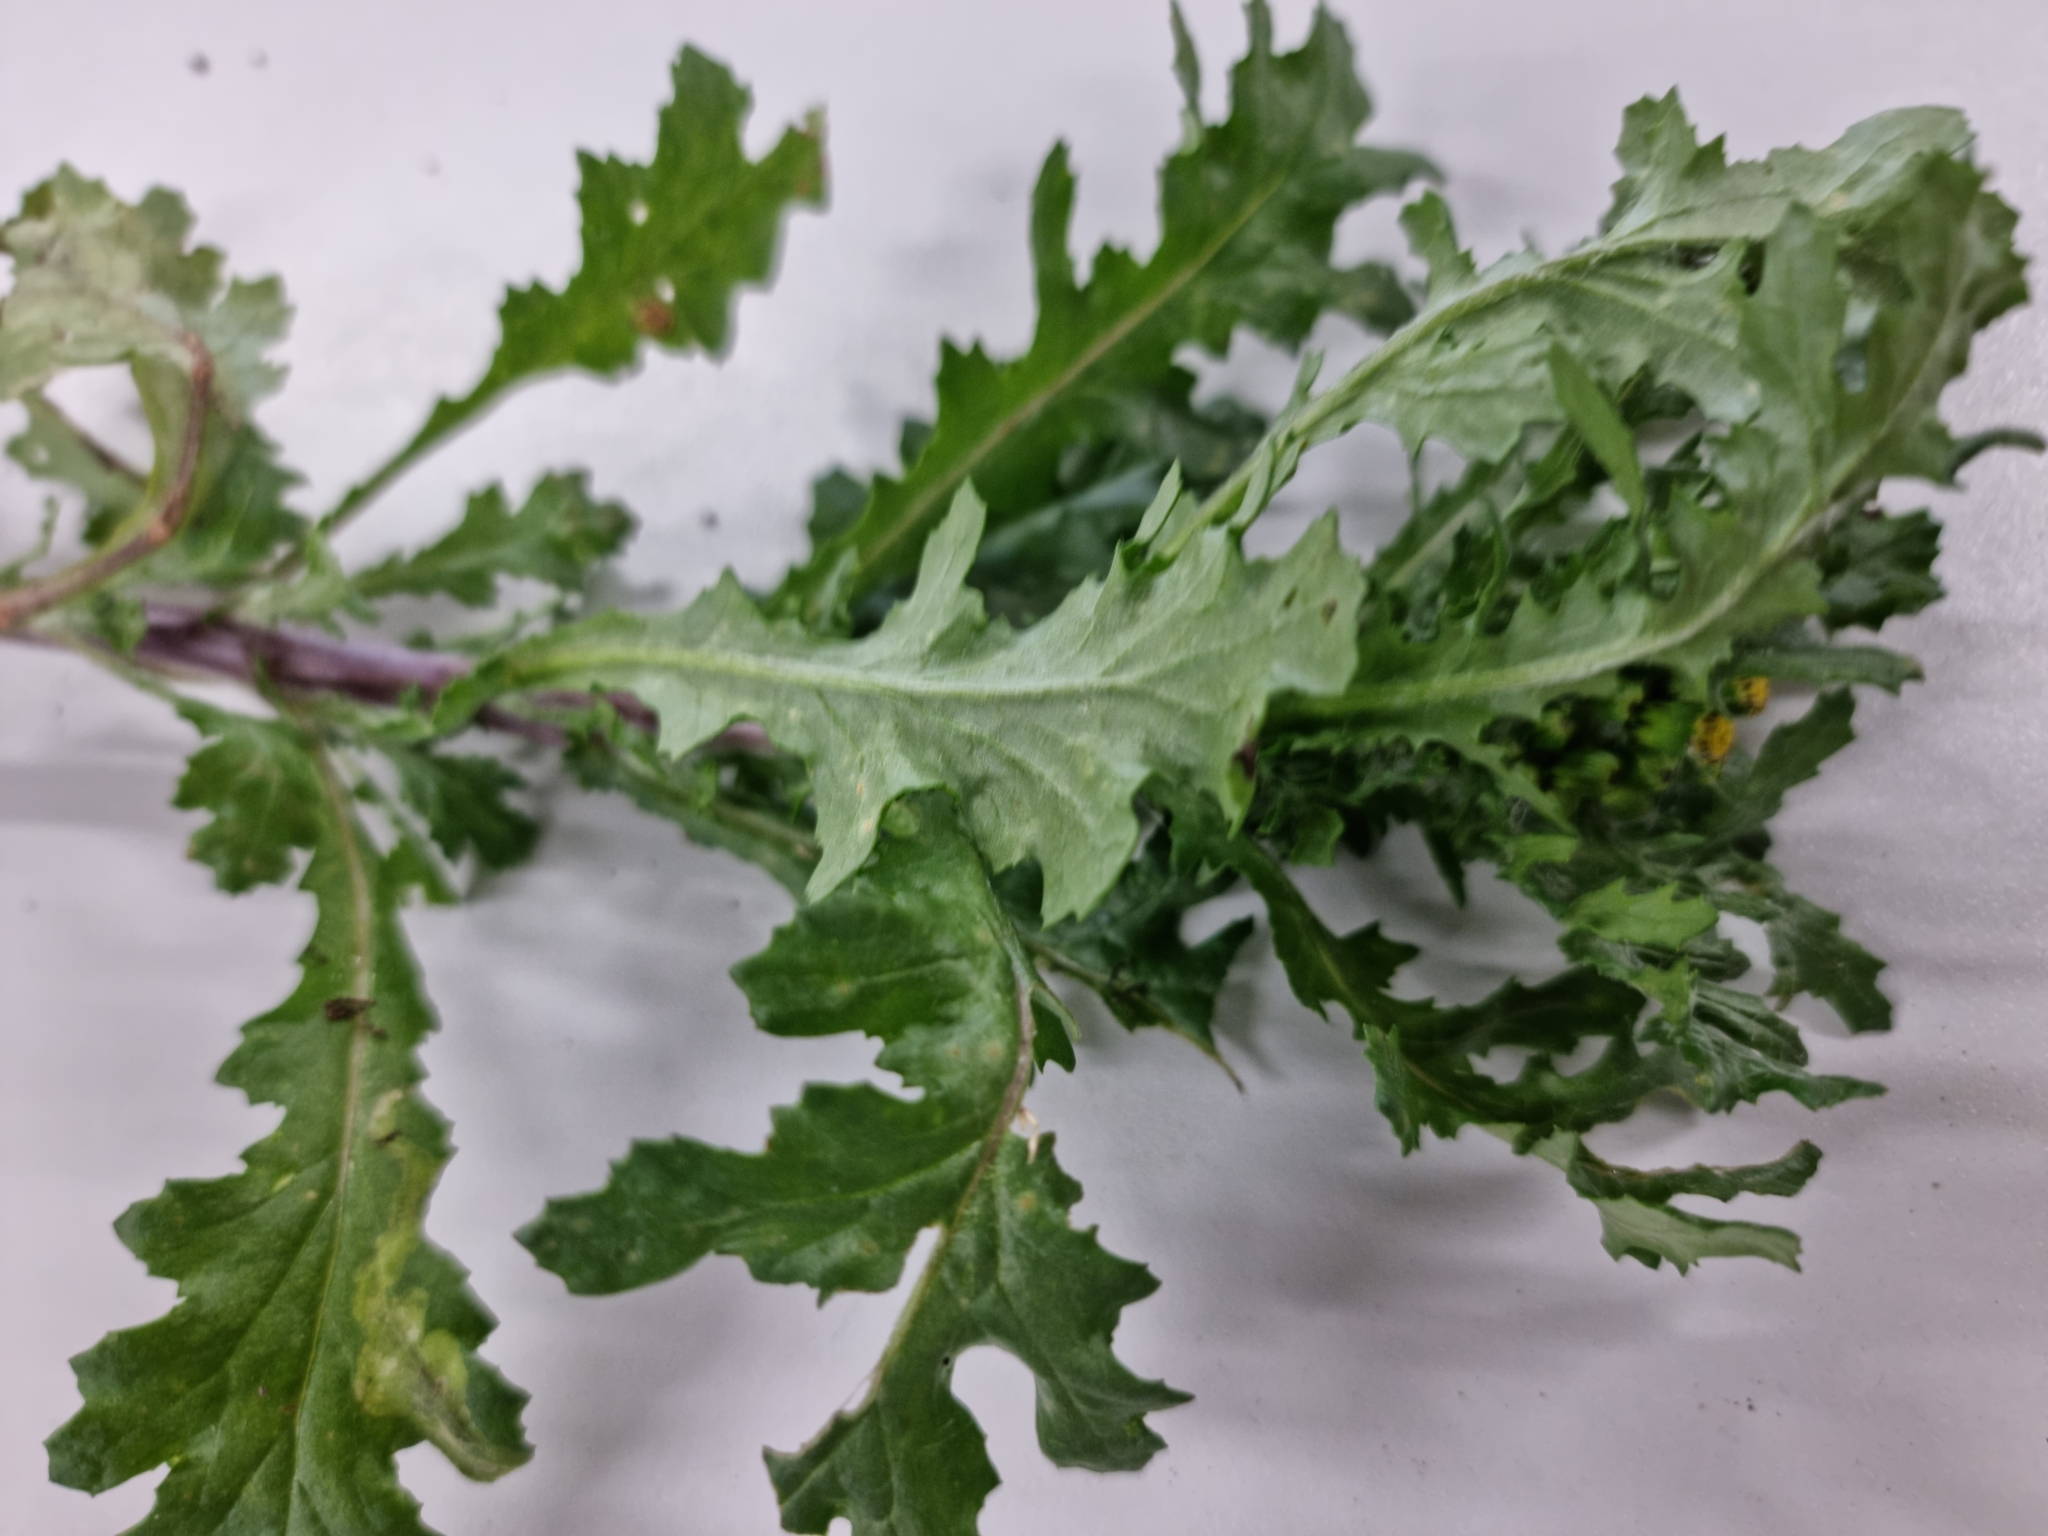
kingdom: Plantae
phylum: Tracheophyta
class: Magnoliopsida
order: Asterales
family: Asteraceae
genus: Senecio
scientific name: Senecio vulgaris
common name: Old-man-in-the-spring
